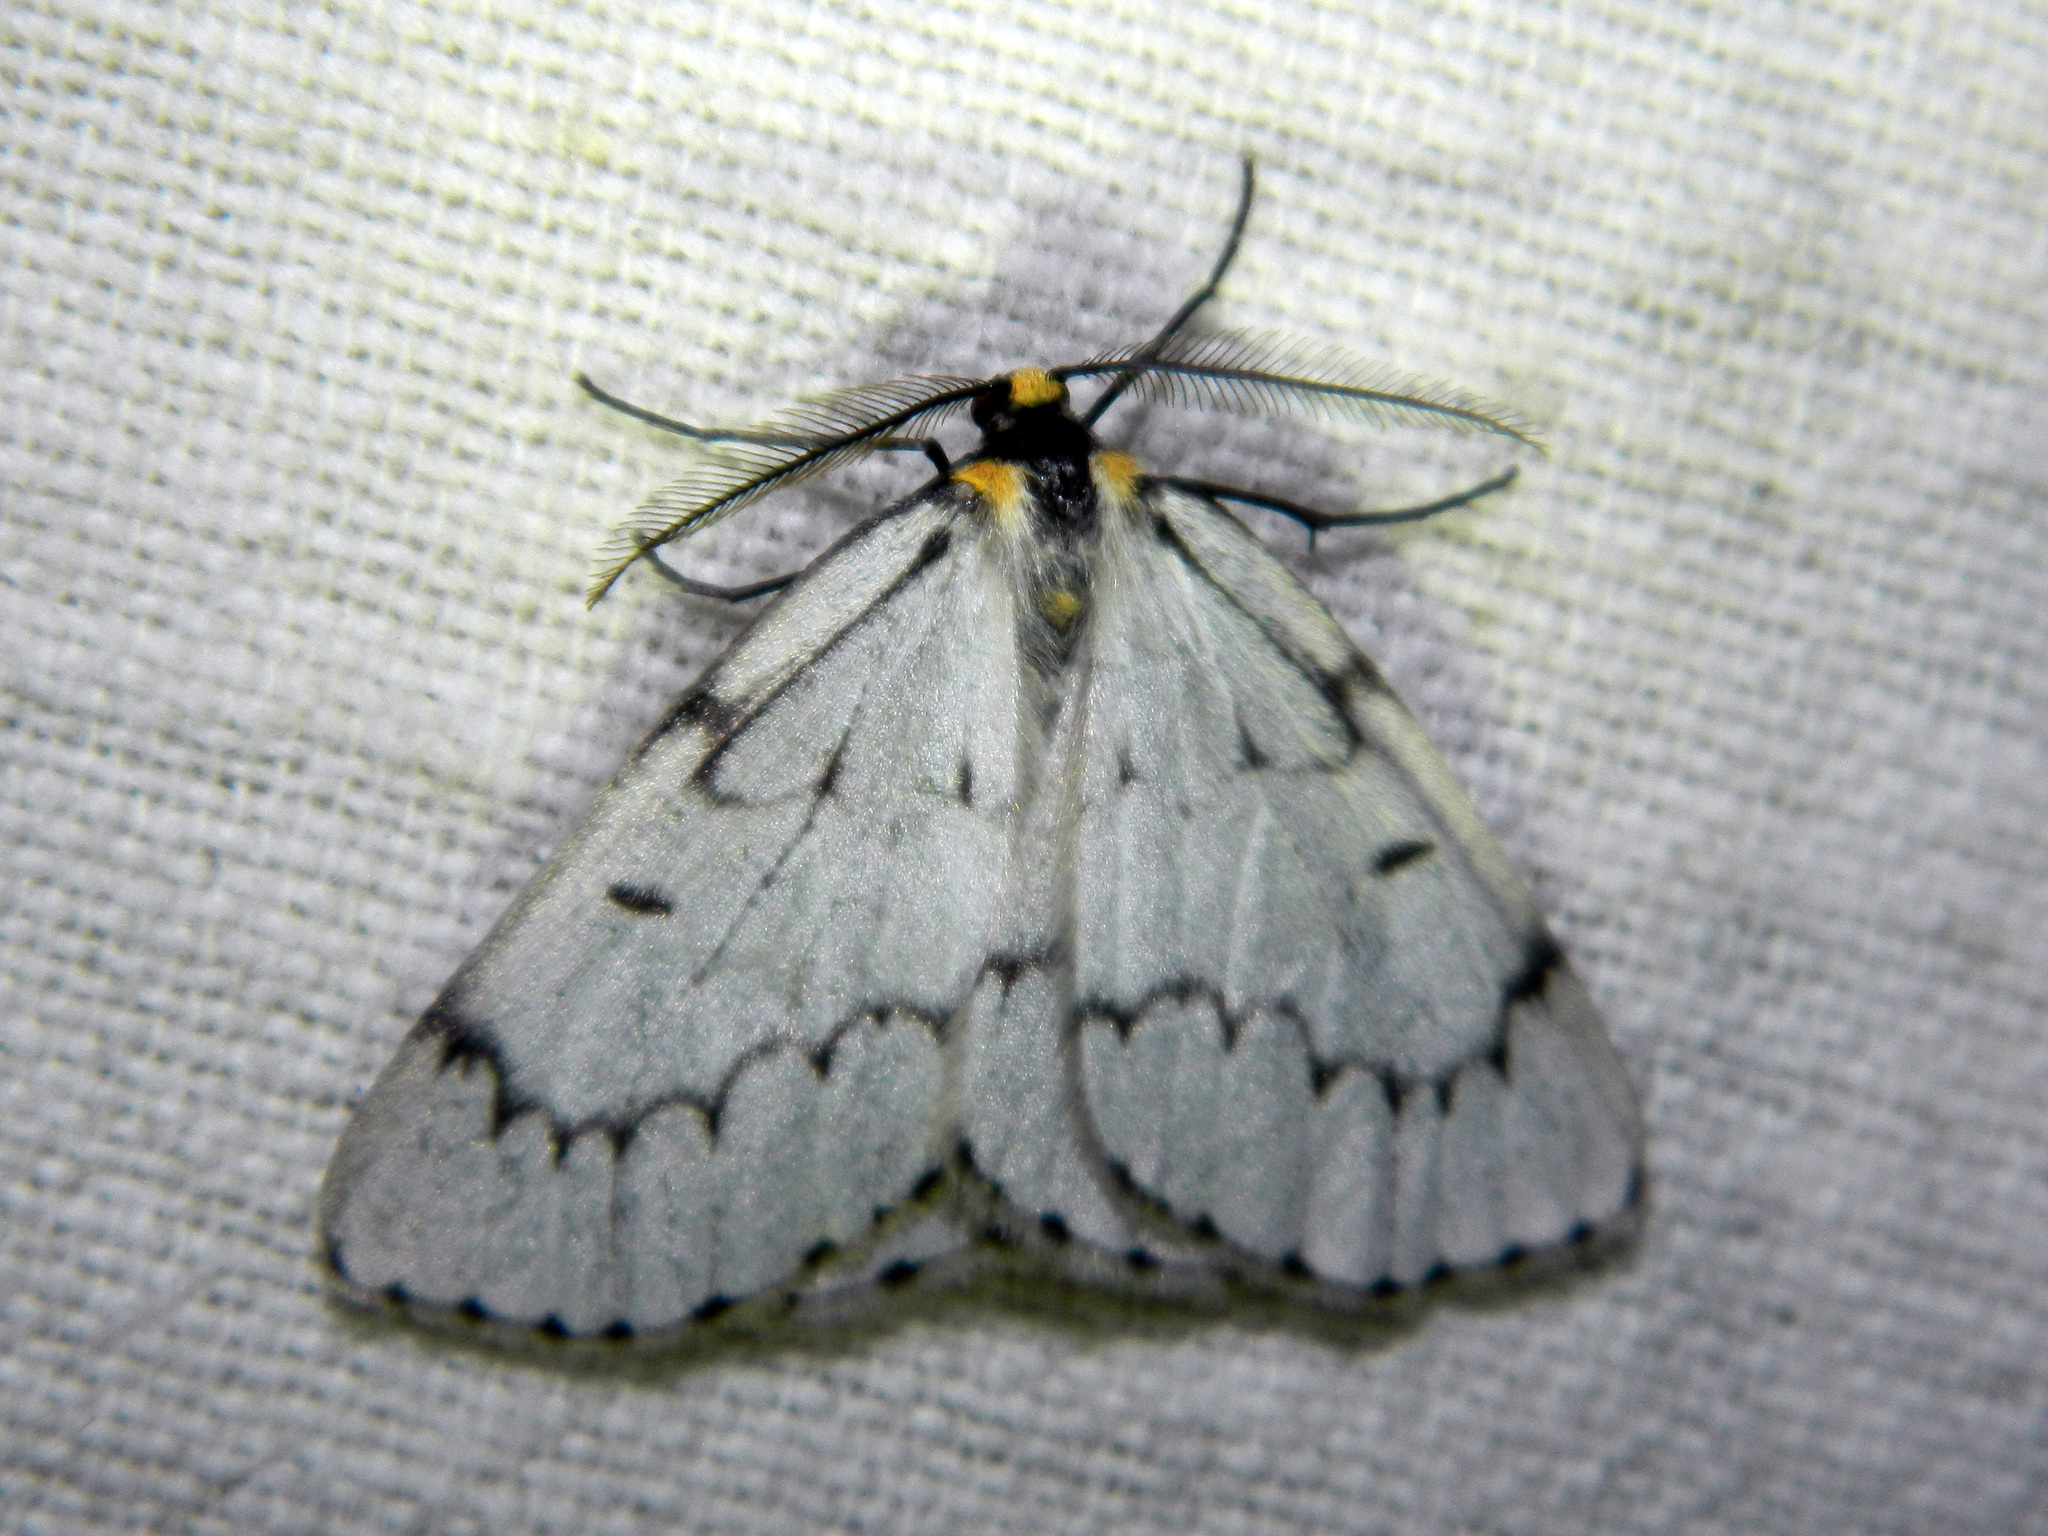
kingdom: Animalia
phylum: Arthropoda
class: Insecta
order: Lepidoptera
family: Geometridae
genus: Cingilia
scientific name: Cingilia catenaria
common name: Chain-dotted geometer
